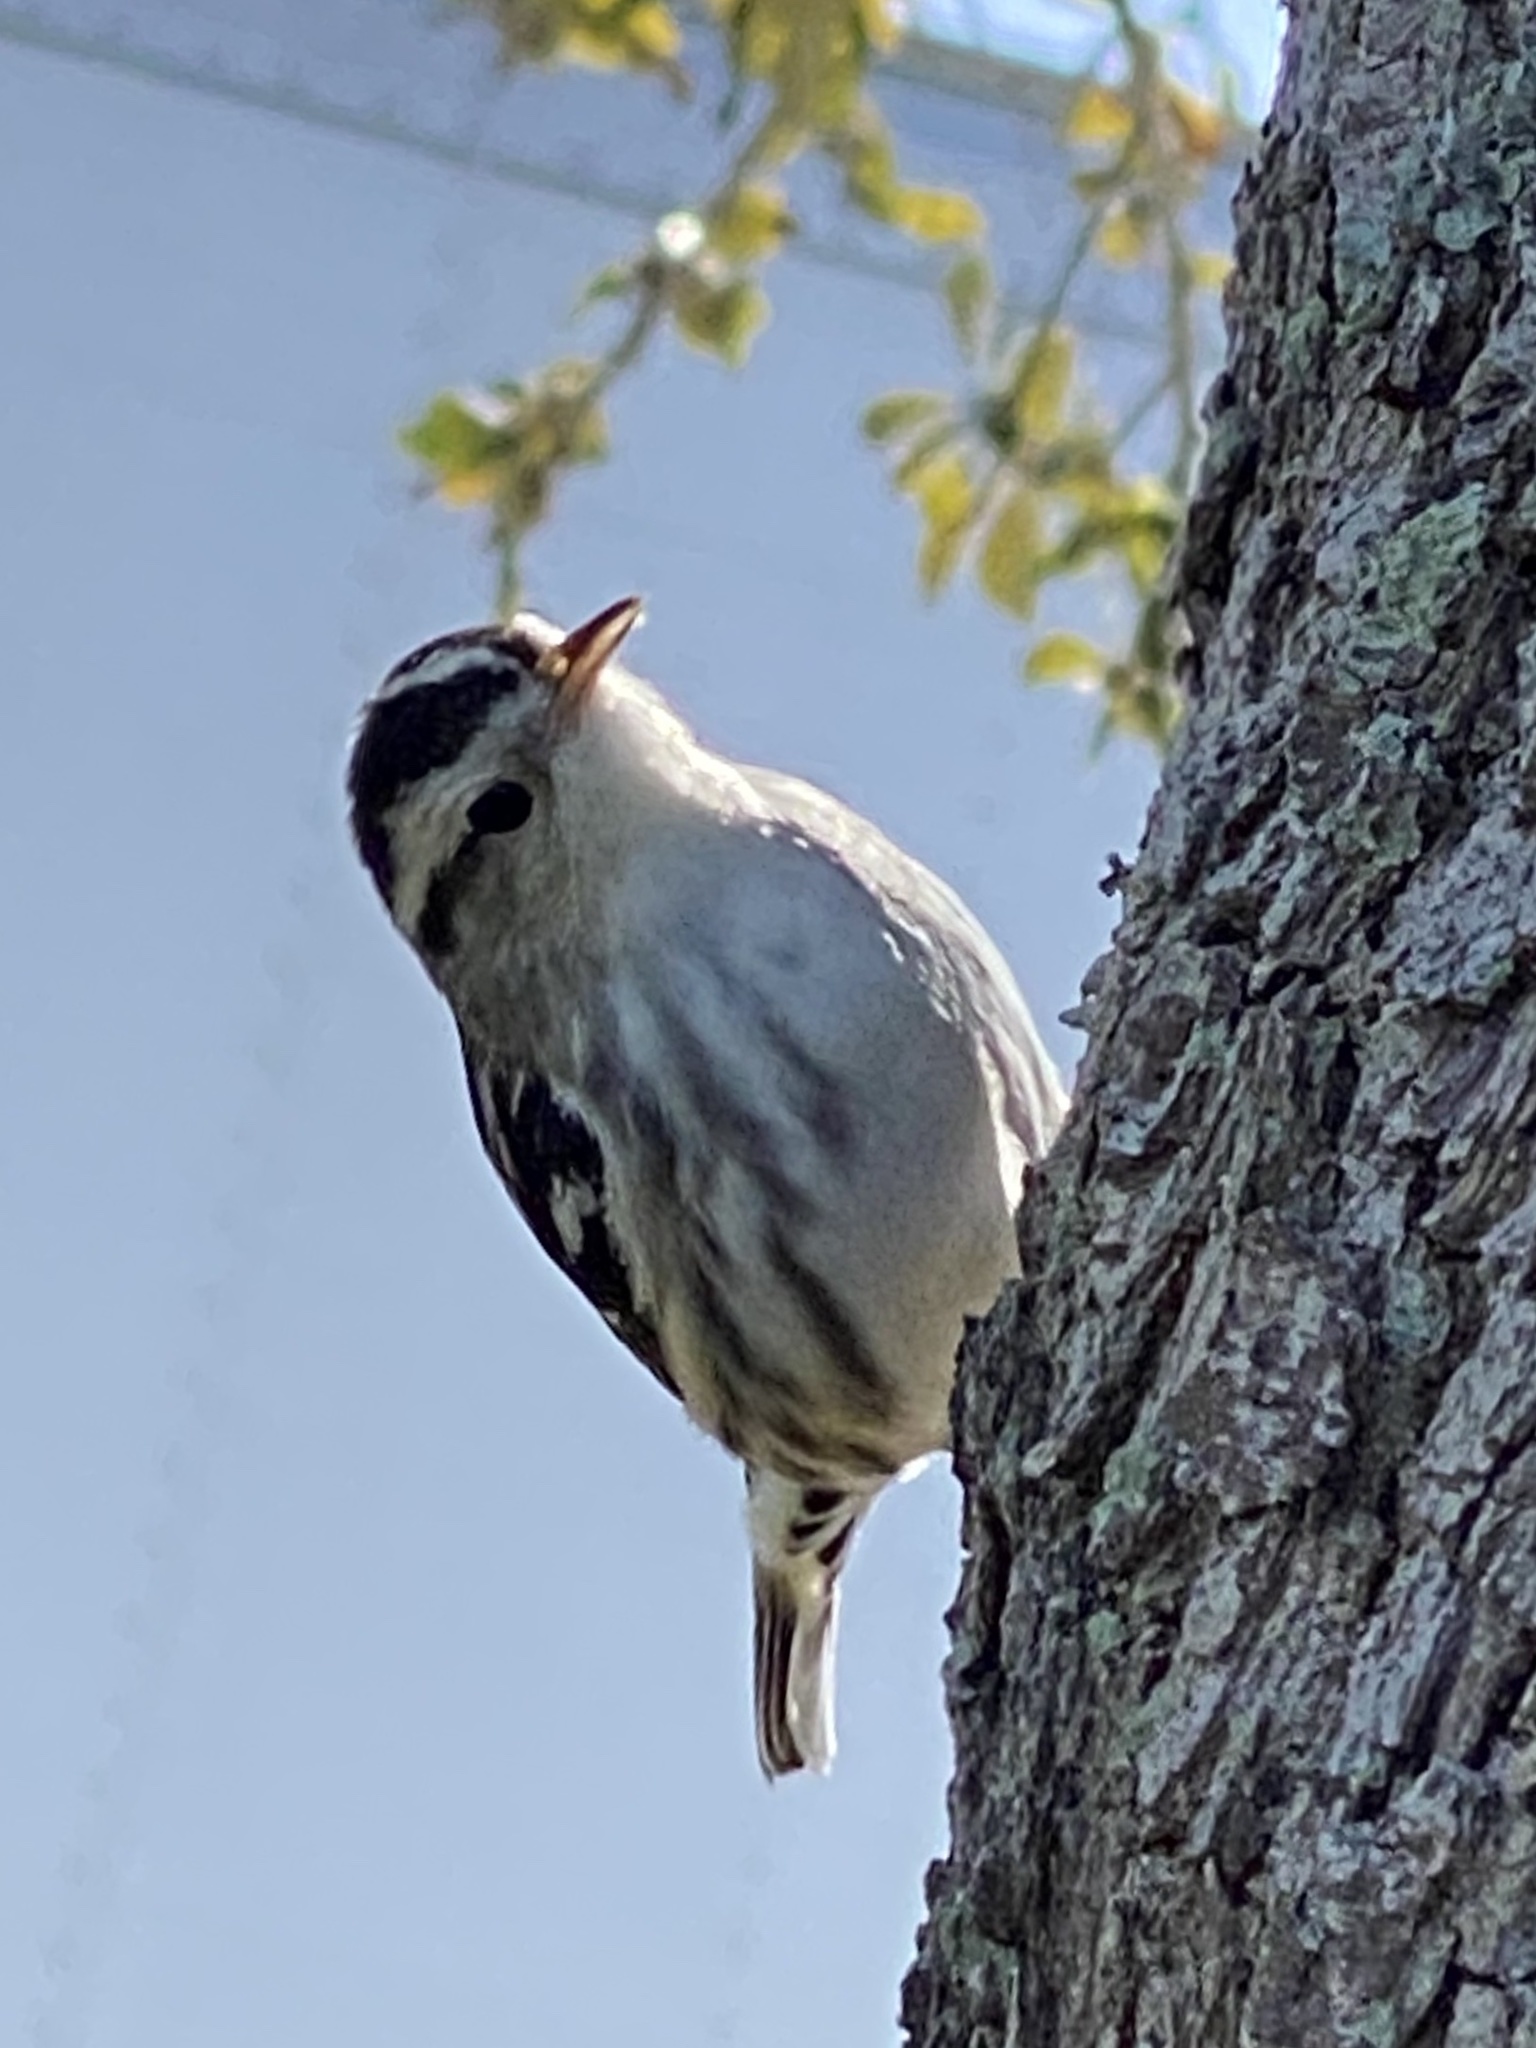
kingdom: Animalia
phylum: Chordata
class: Aves
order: Passeriformes
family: Parulidae
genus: Mniotilta
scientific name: Mniotilta varia
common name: Black-and-white warbler
